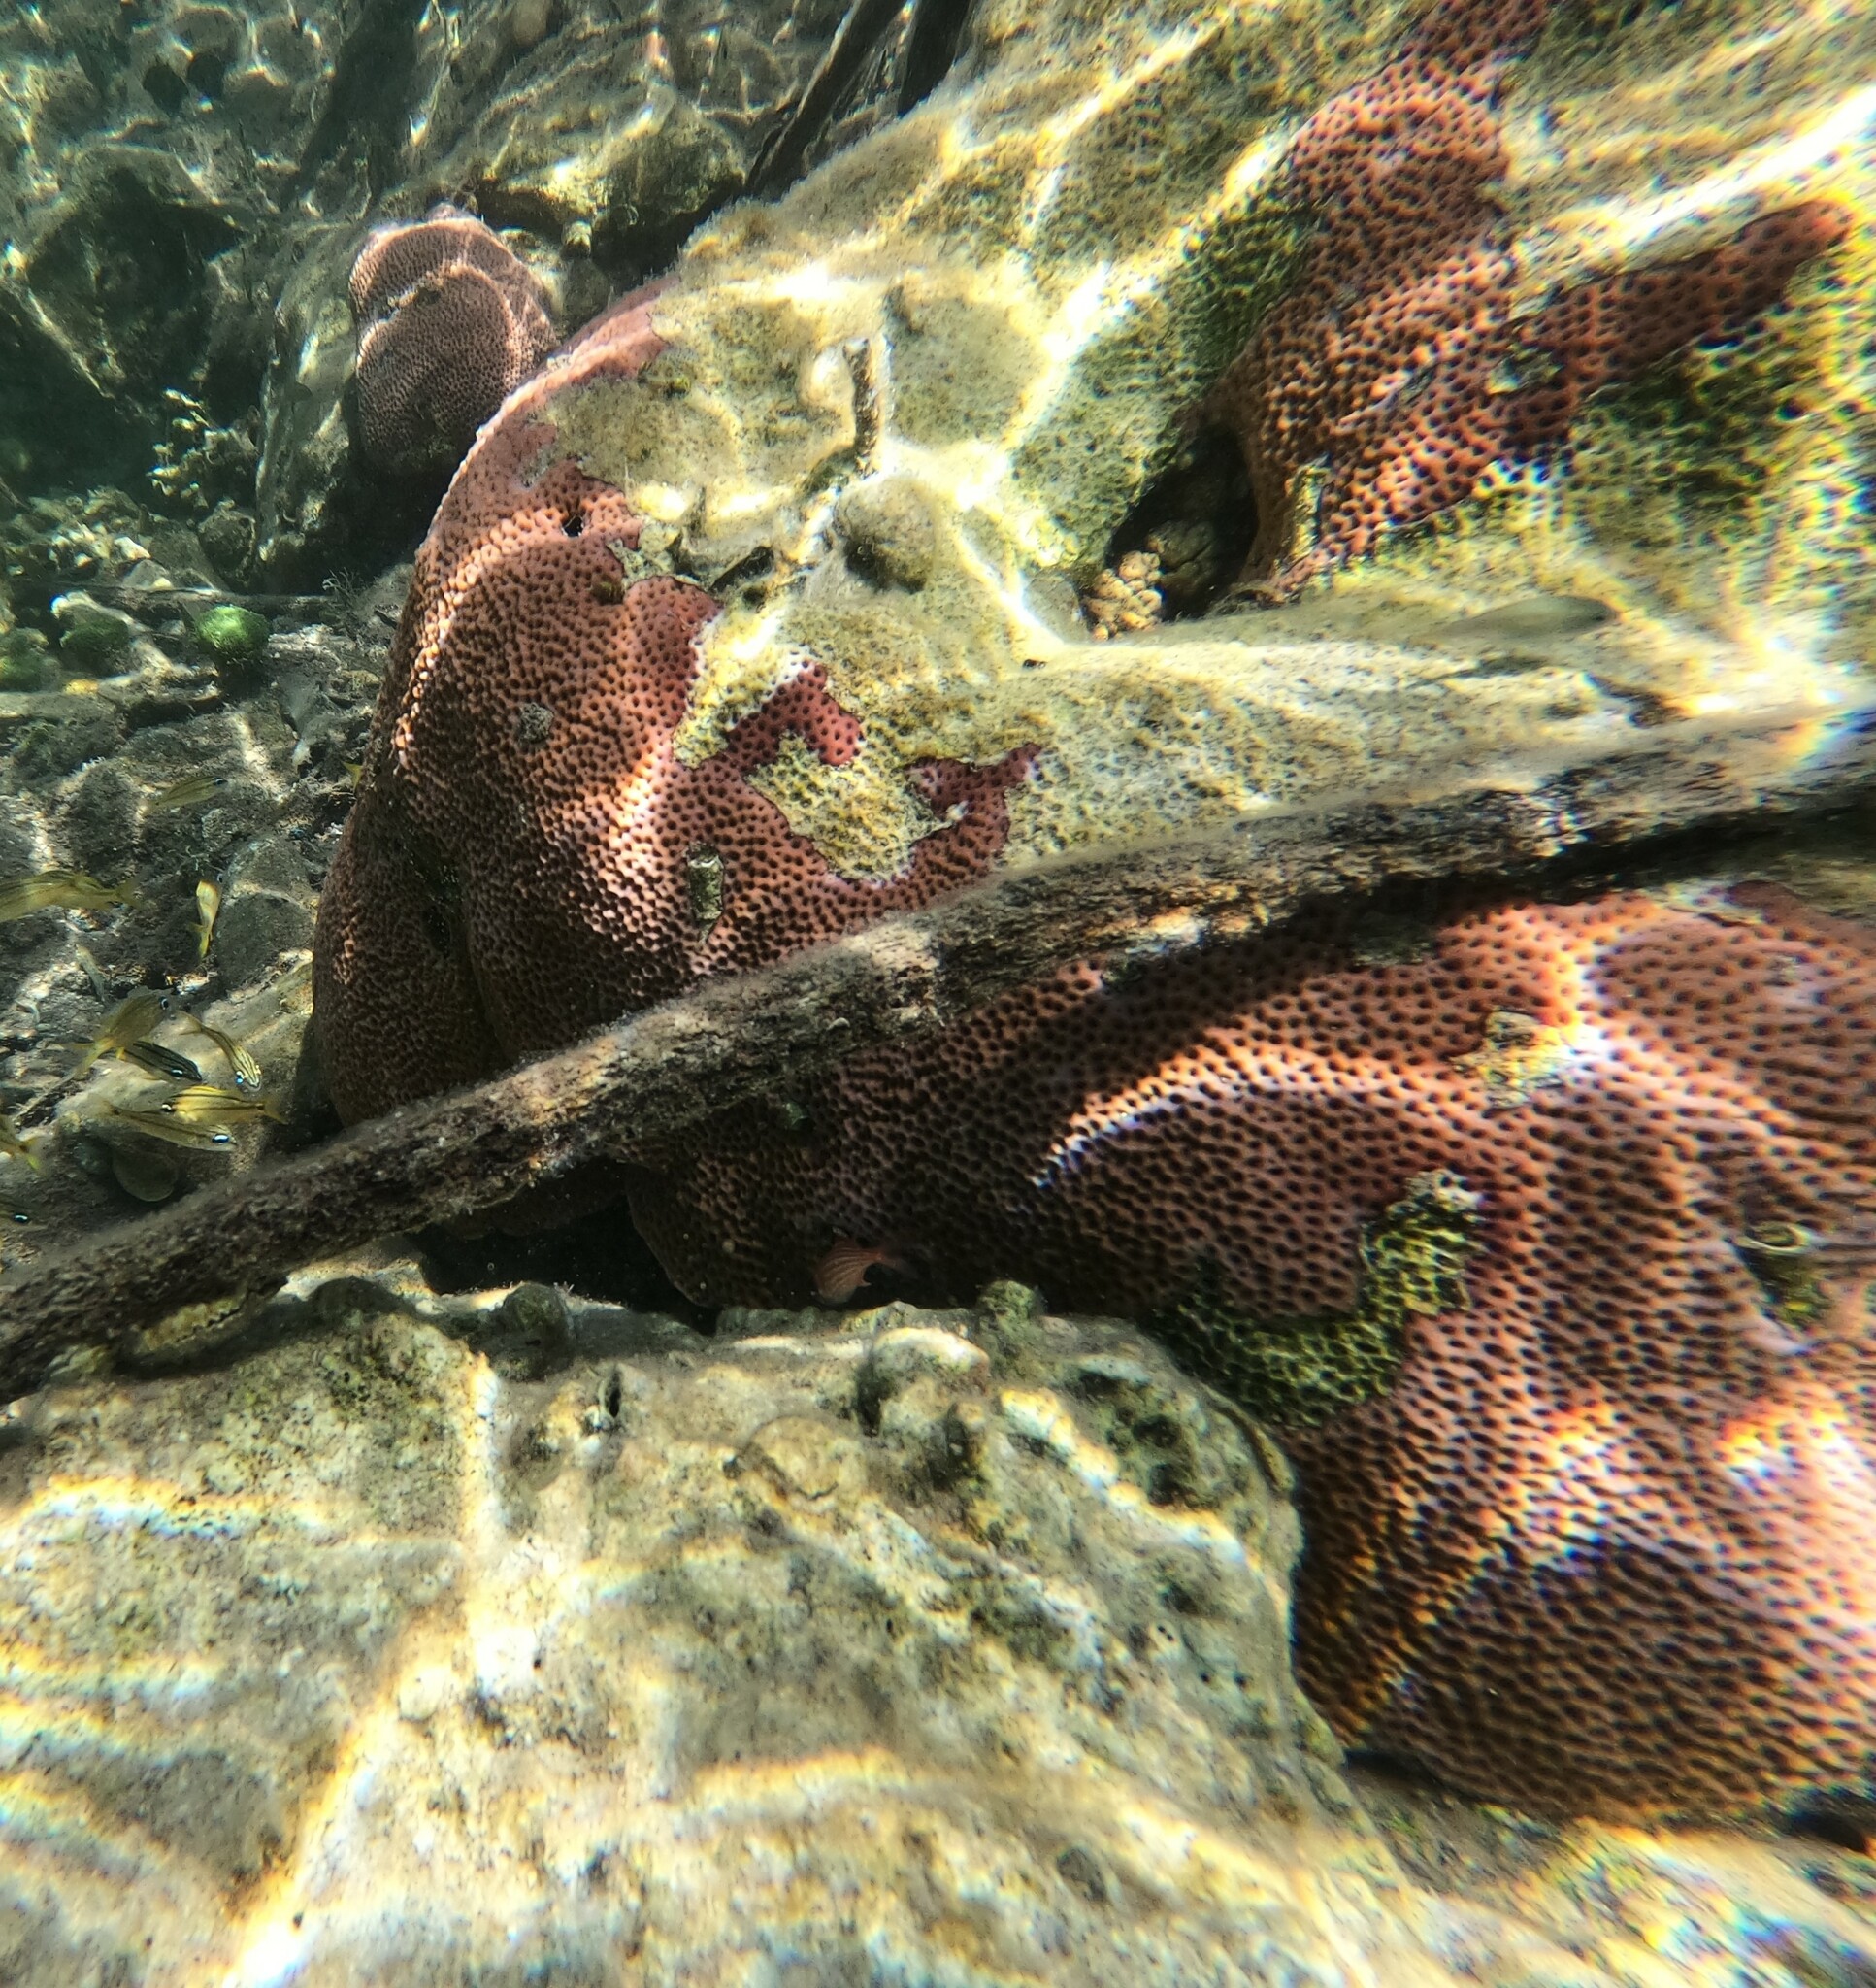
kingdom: Animalia
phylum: Cnidaria
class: Anthozoa
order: Scleractinia
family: Rhizangiidae
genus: Siderastrea
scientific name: Siderastrea siderea
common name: Massive starlet coral
